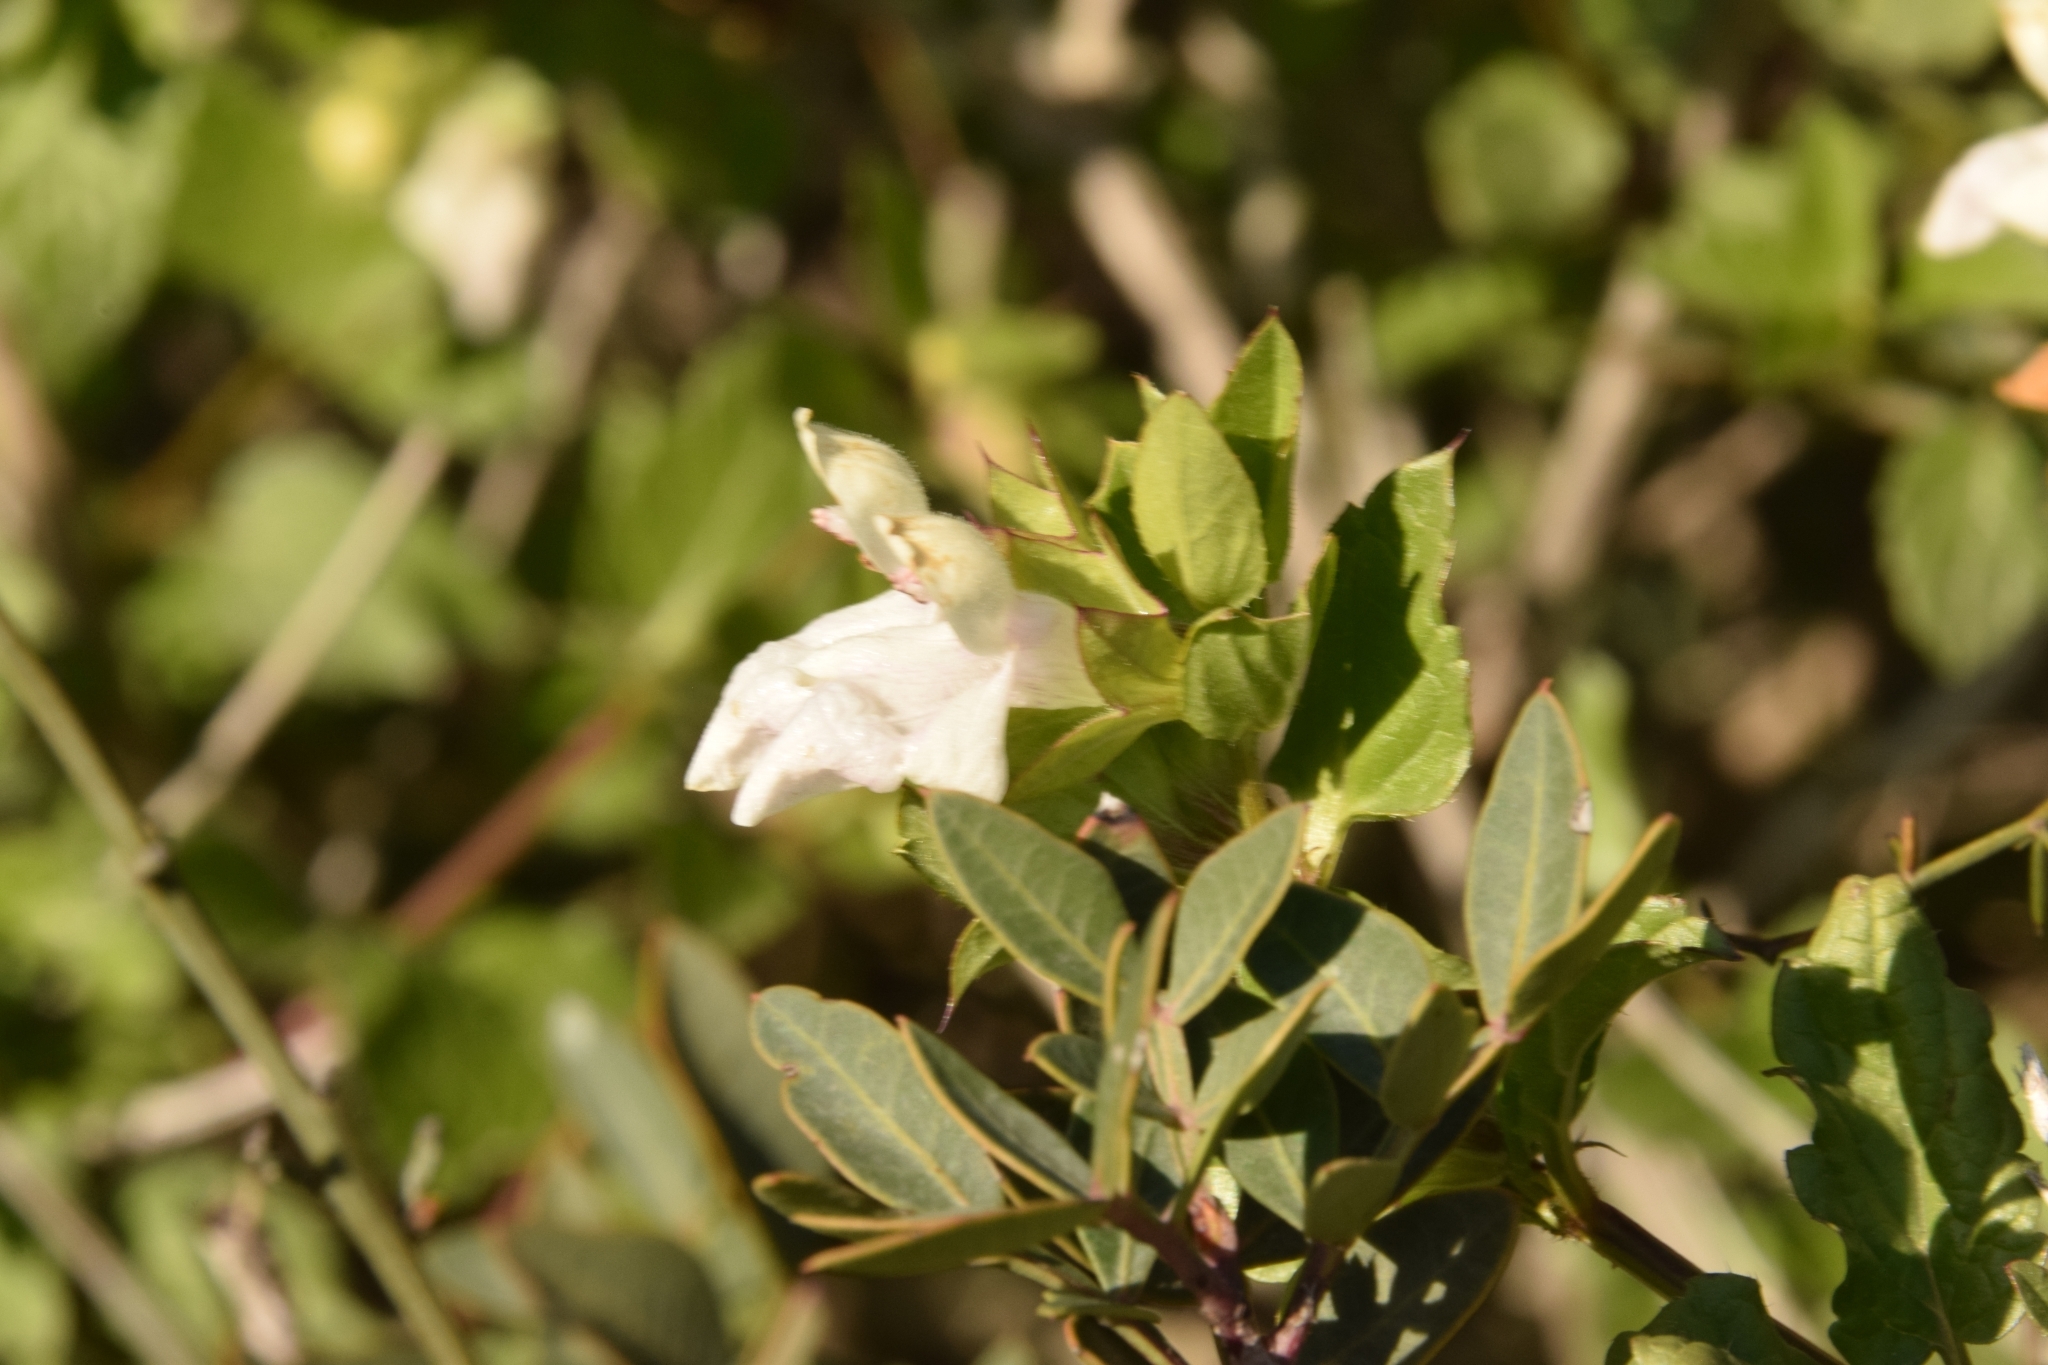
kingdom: Plantae
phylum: Tracheophyta
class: Magnoliopsida
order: Lamiales
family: Lamiaceae
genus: Prasium
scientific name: Prasium majus
